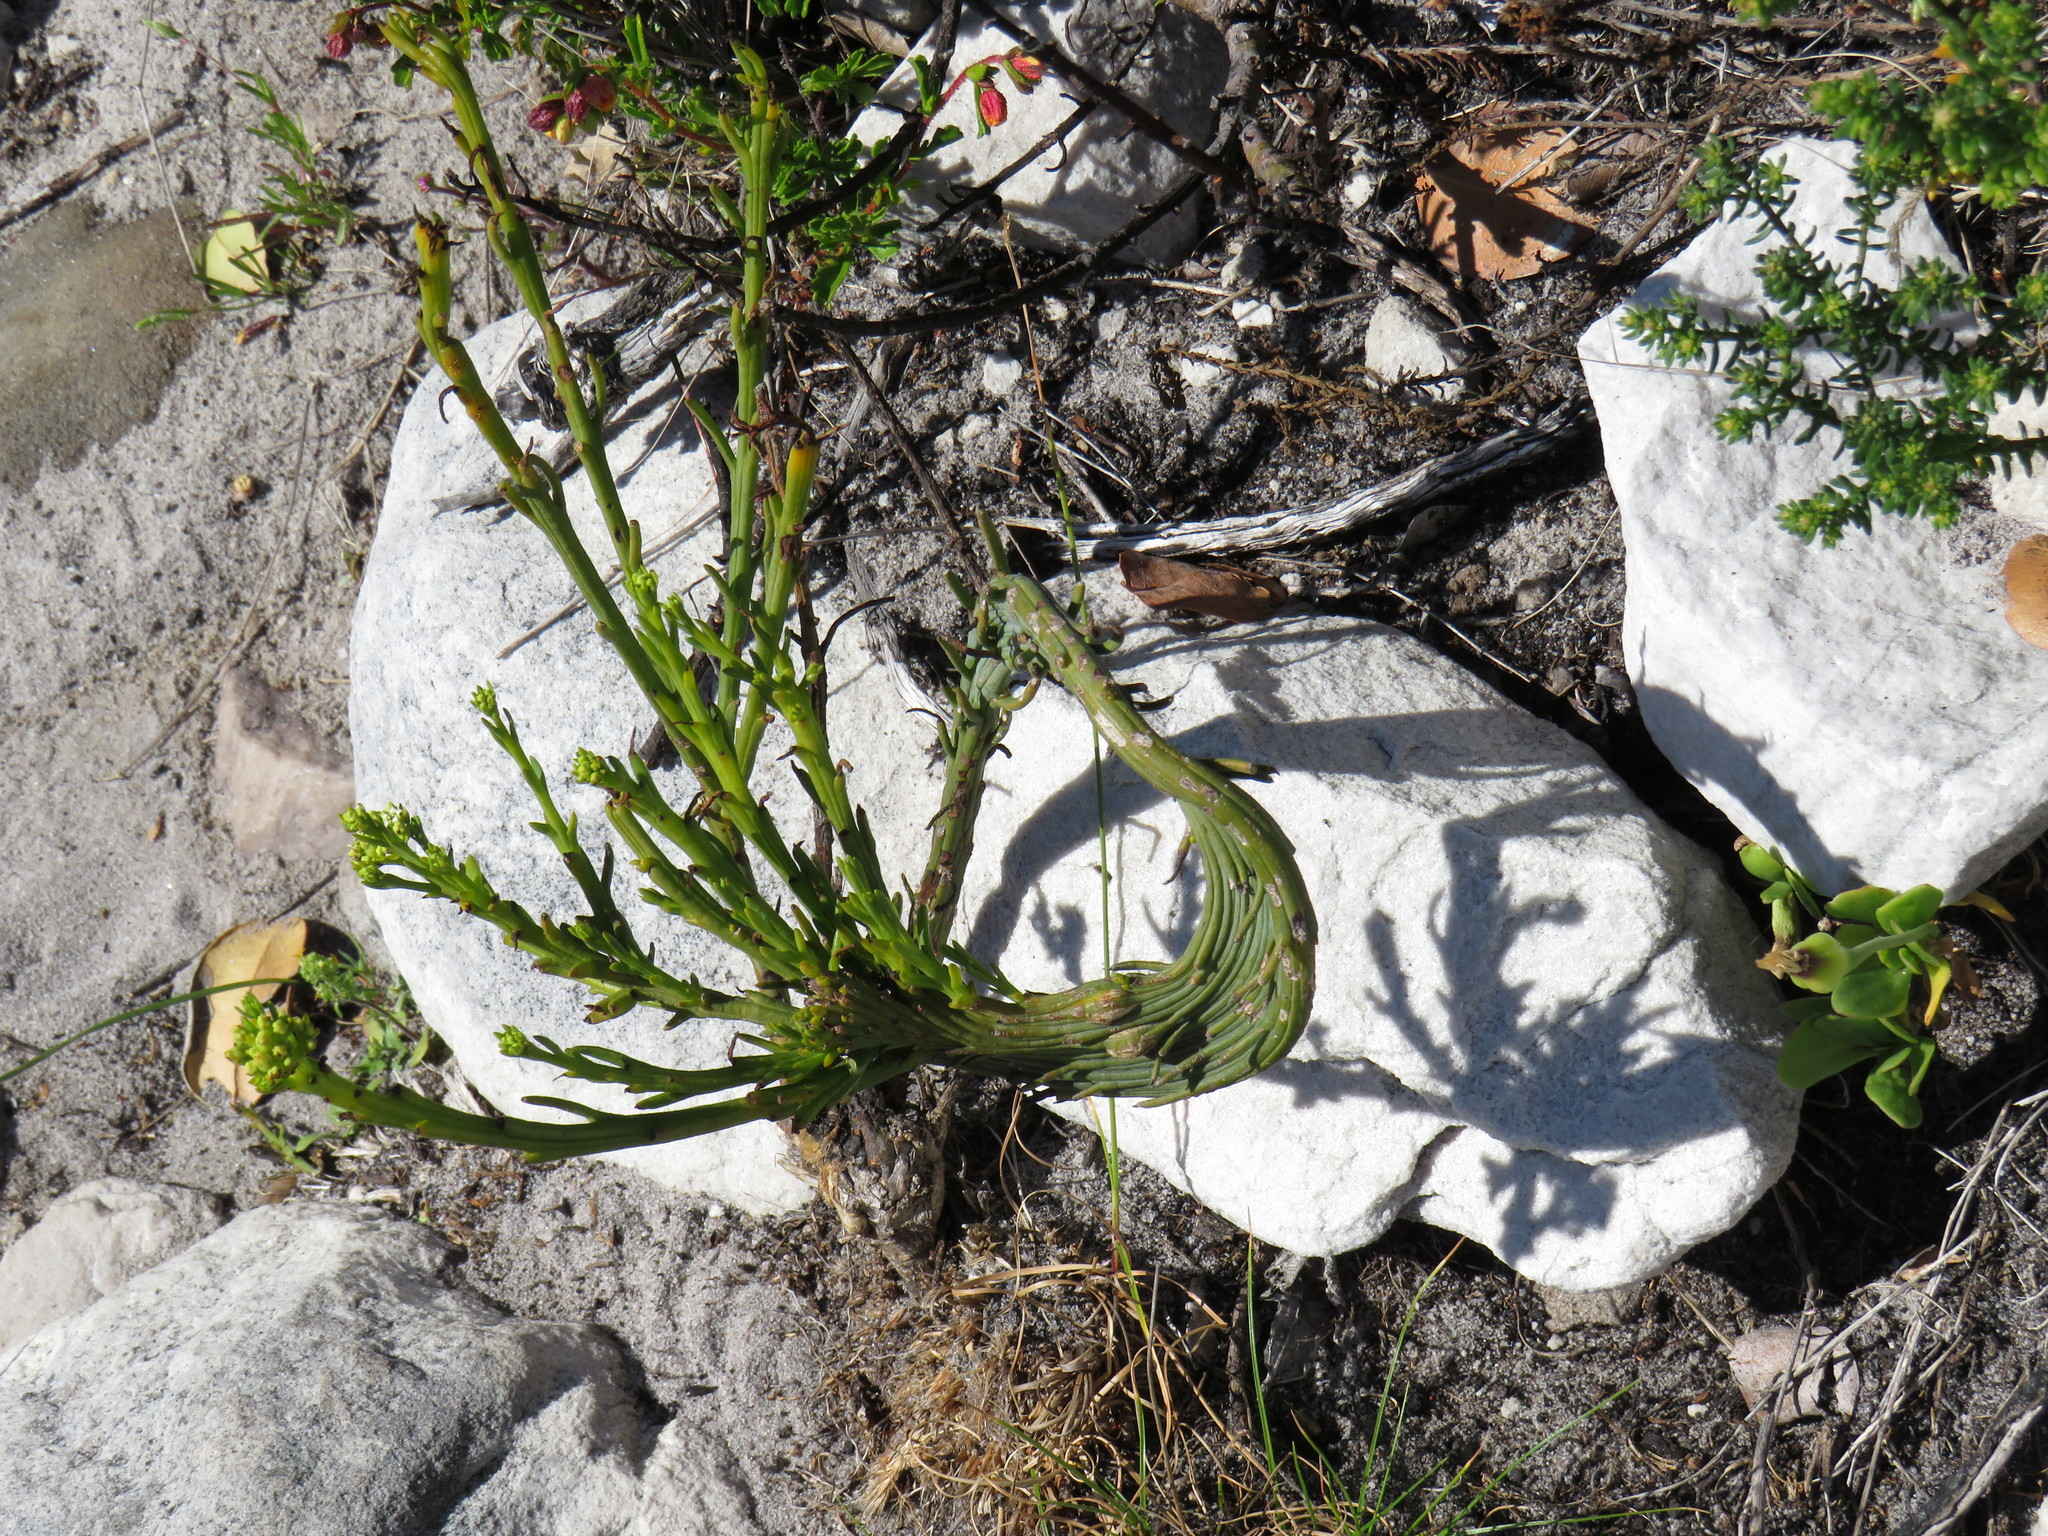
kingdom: Plantae
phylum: Tracheophyta
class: Magnoliopsida
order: Santalales
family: Thesiaceae
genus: Thesium
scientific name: Thesium strictum
